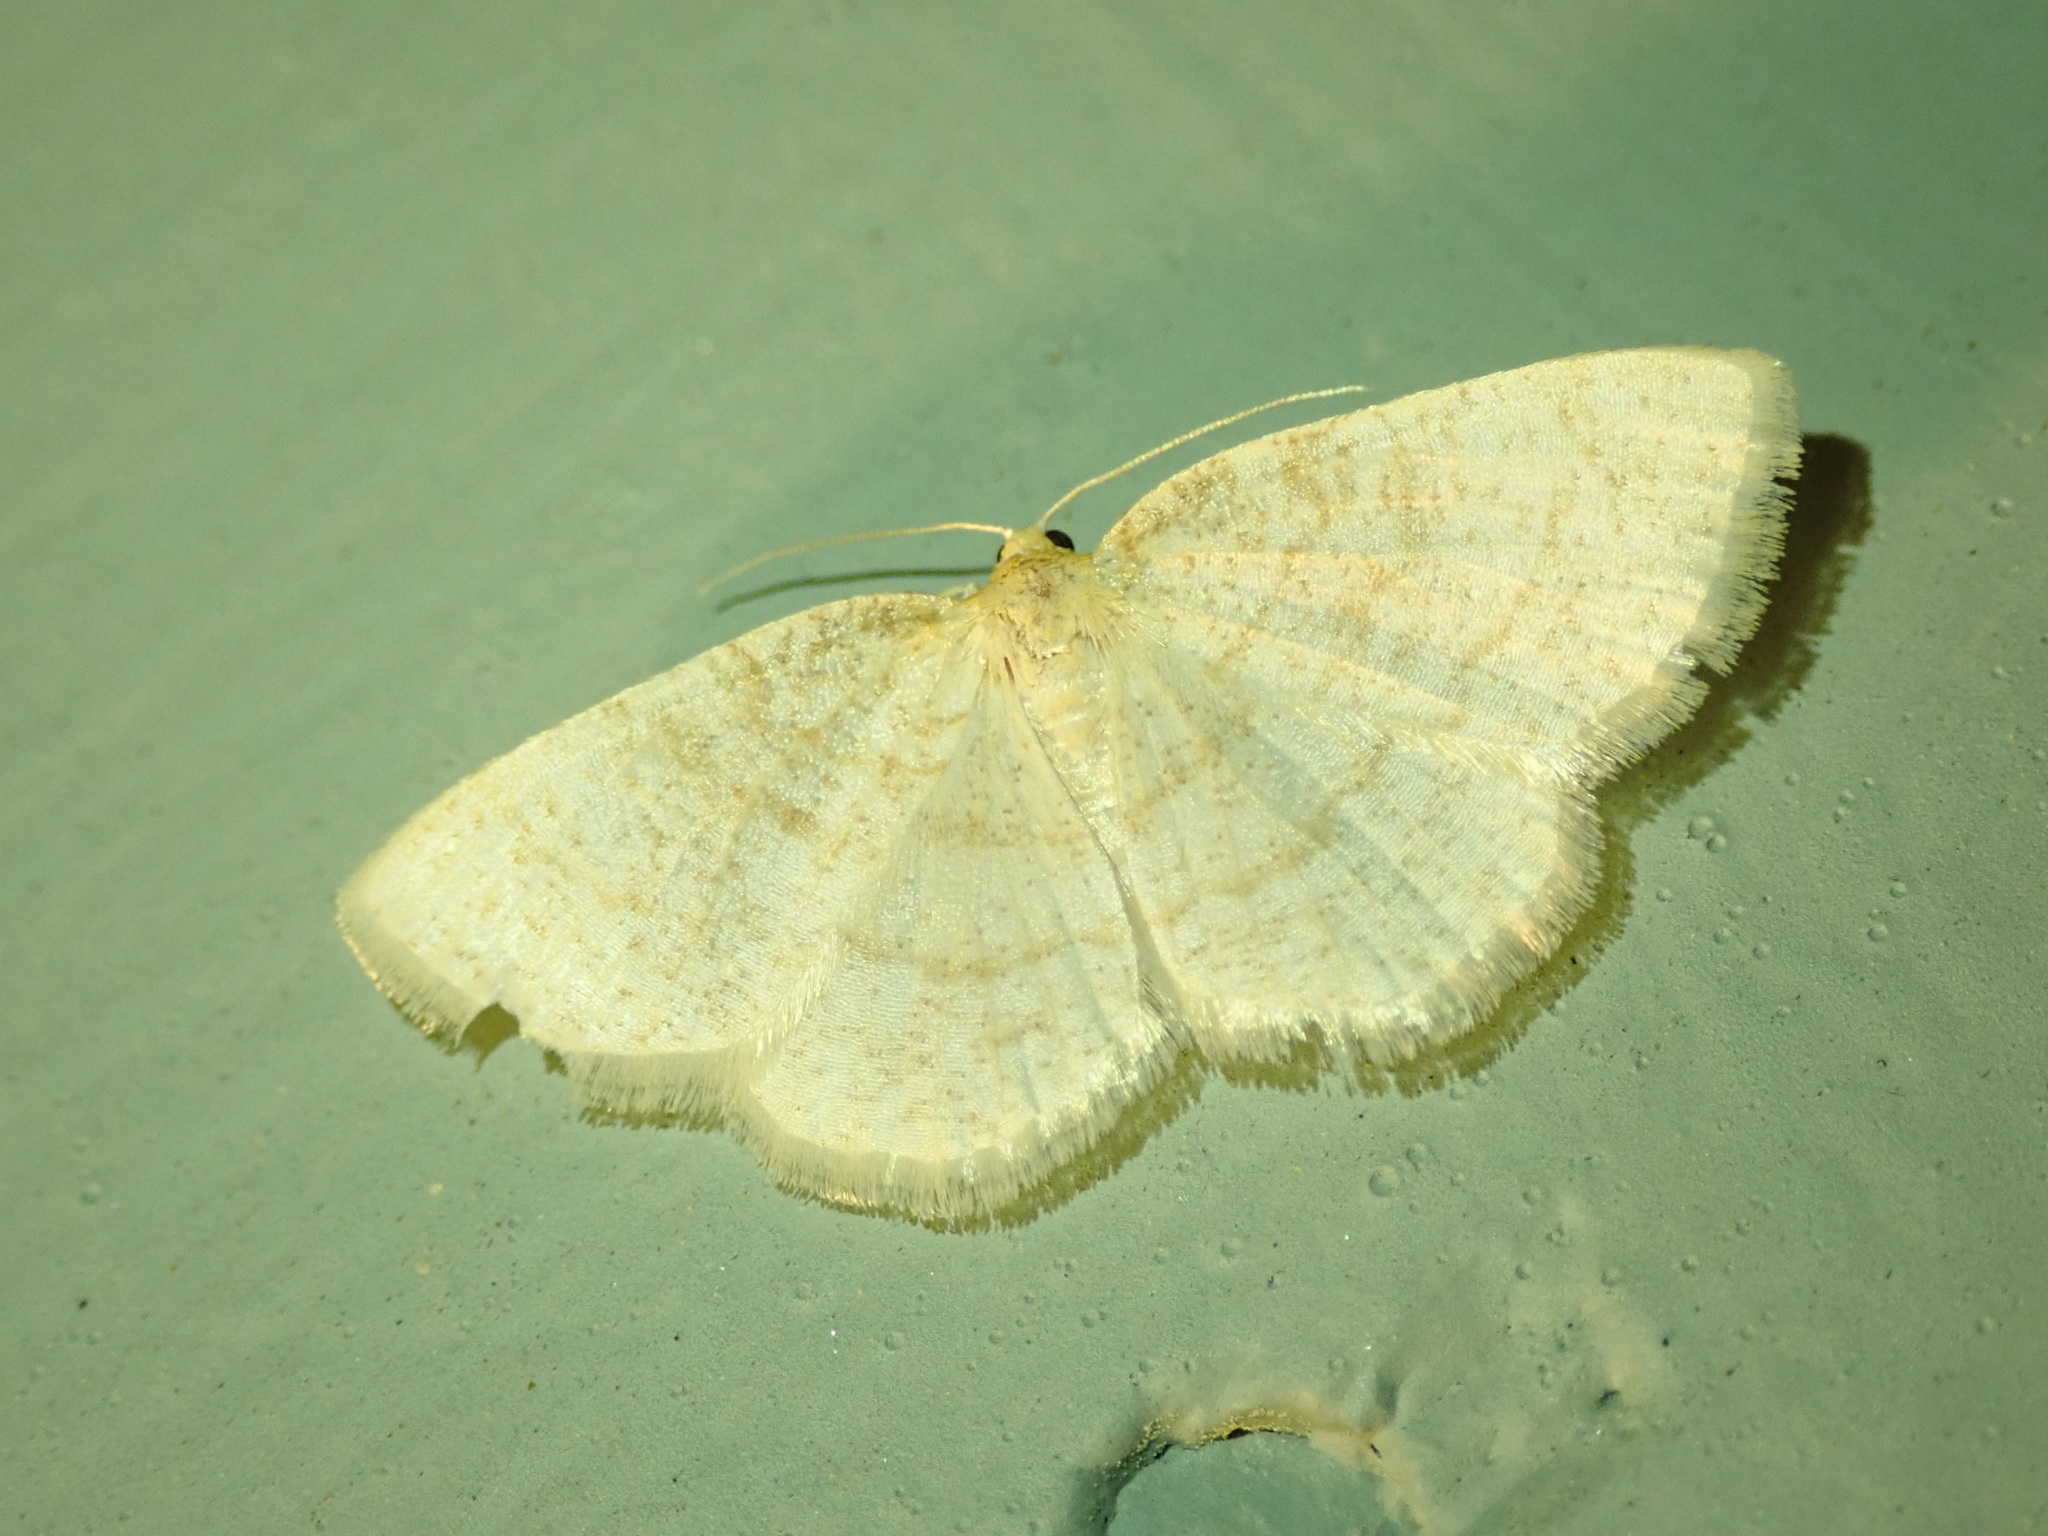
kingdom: Animalia
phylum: Arthropoda
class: Insecta
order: Lepidoptera
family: Geometridae
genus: Cabera
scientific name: Cabera erythemaria
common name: Yellow-dusted cream moth
